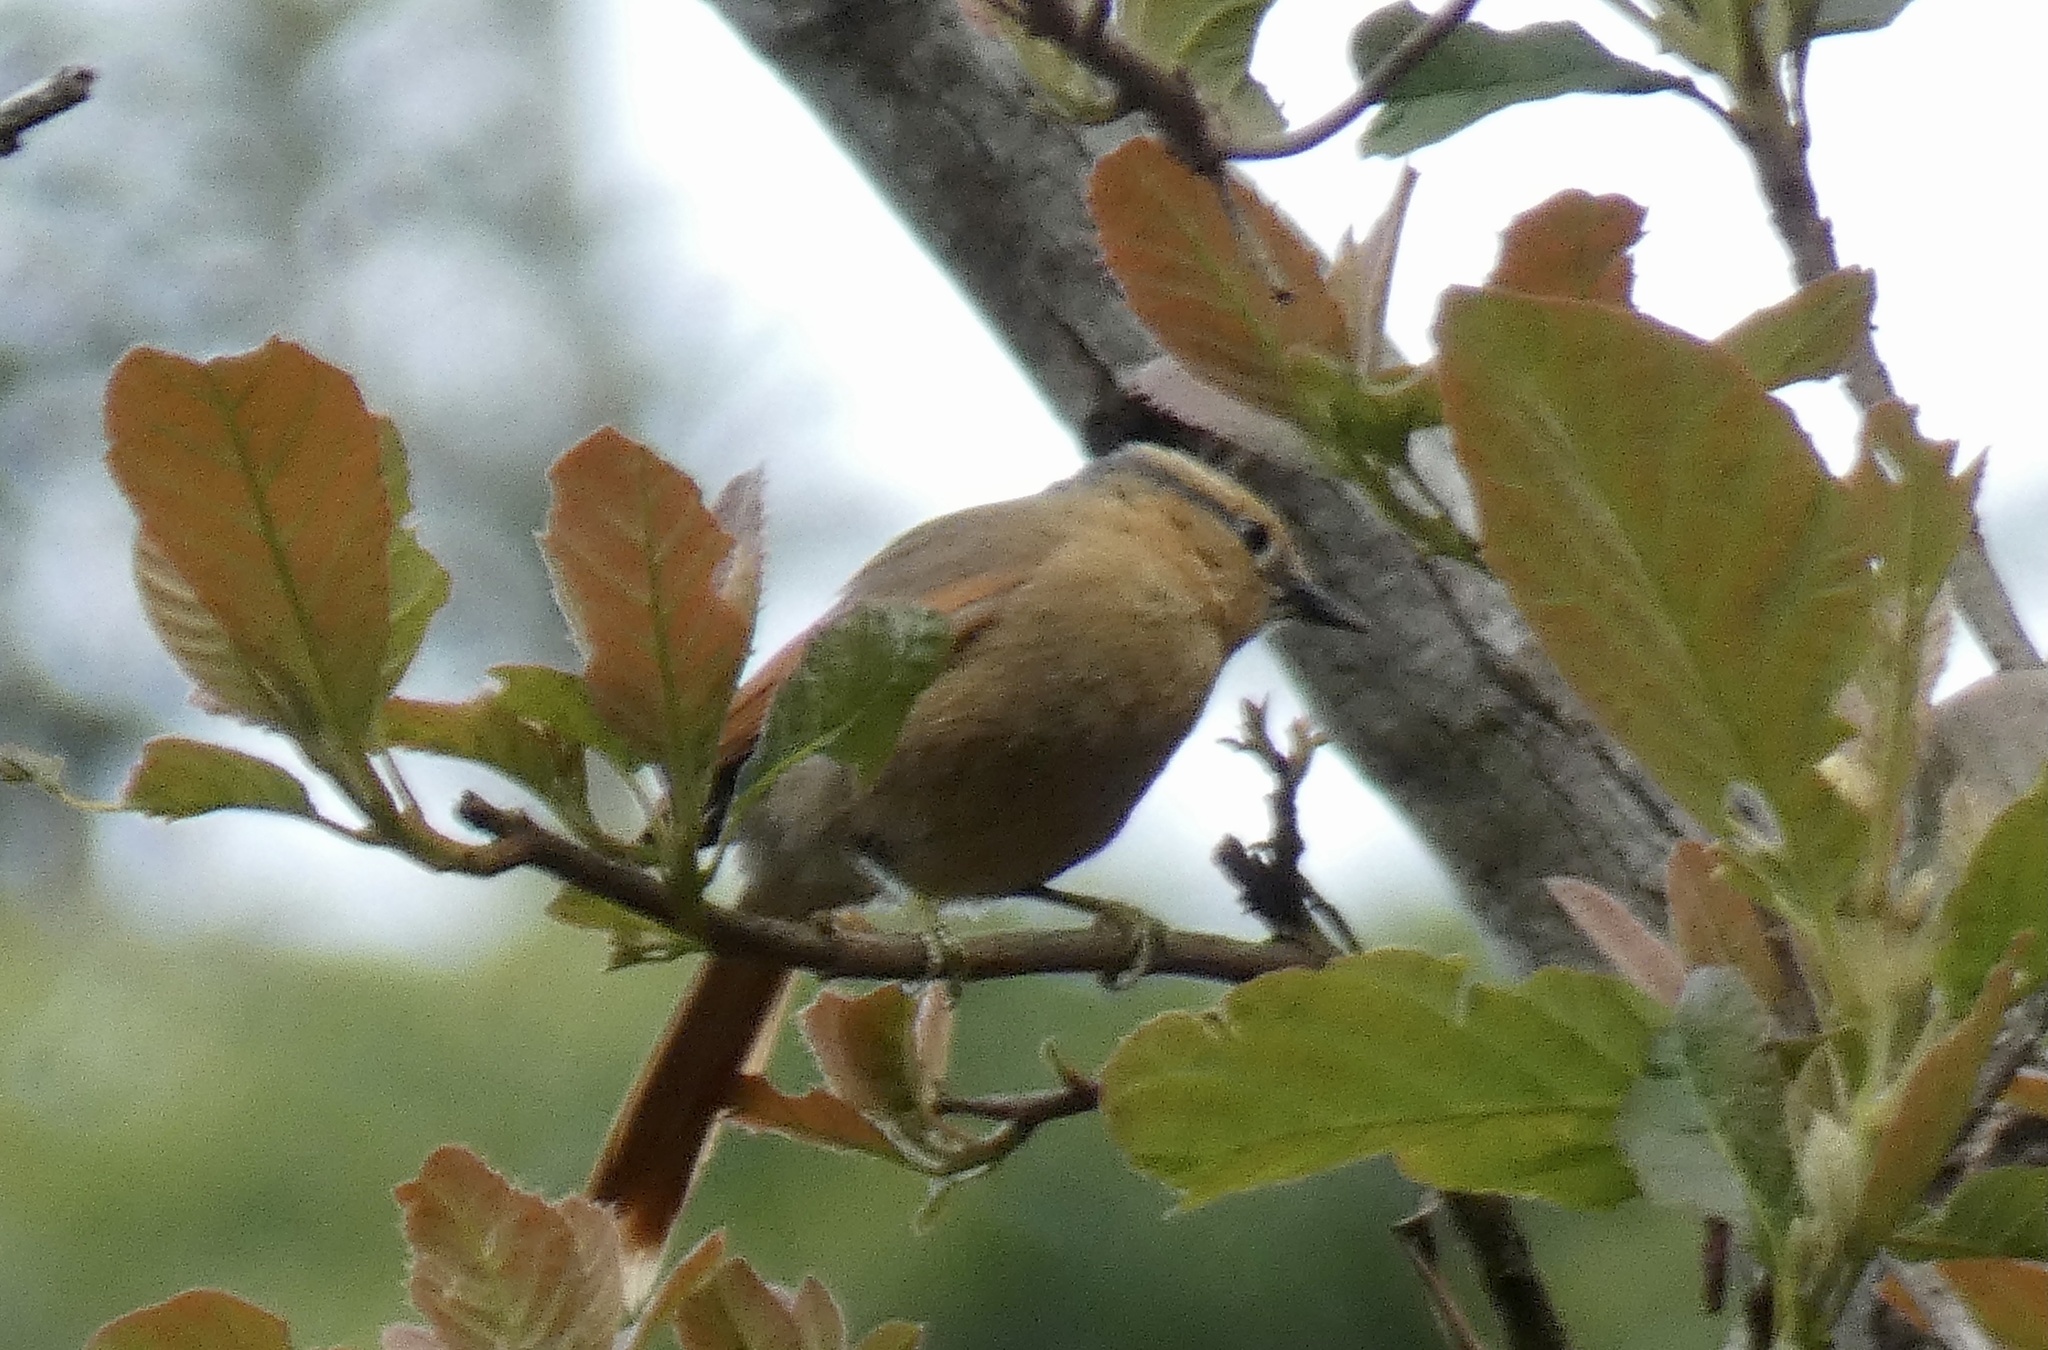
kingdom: Animalia
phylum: Chordata
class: Aves
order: Passeriformes
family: Furnariidae
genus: Philydor
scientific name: Philydor rufum
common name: Buff-fronted foliage-gleaner
